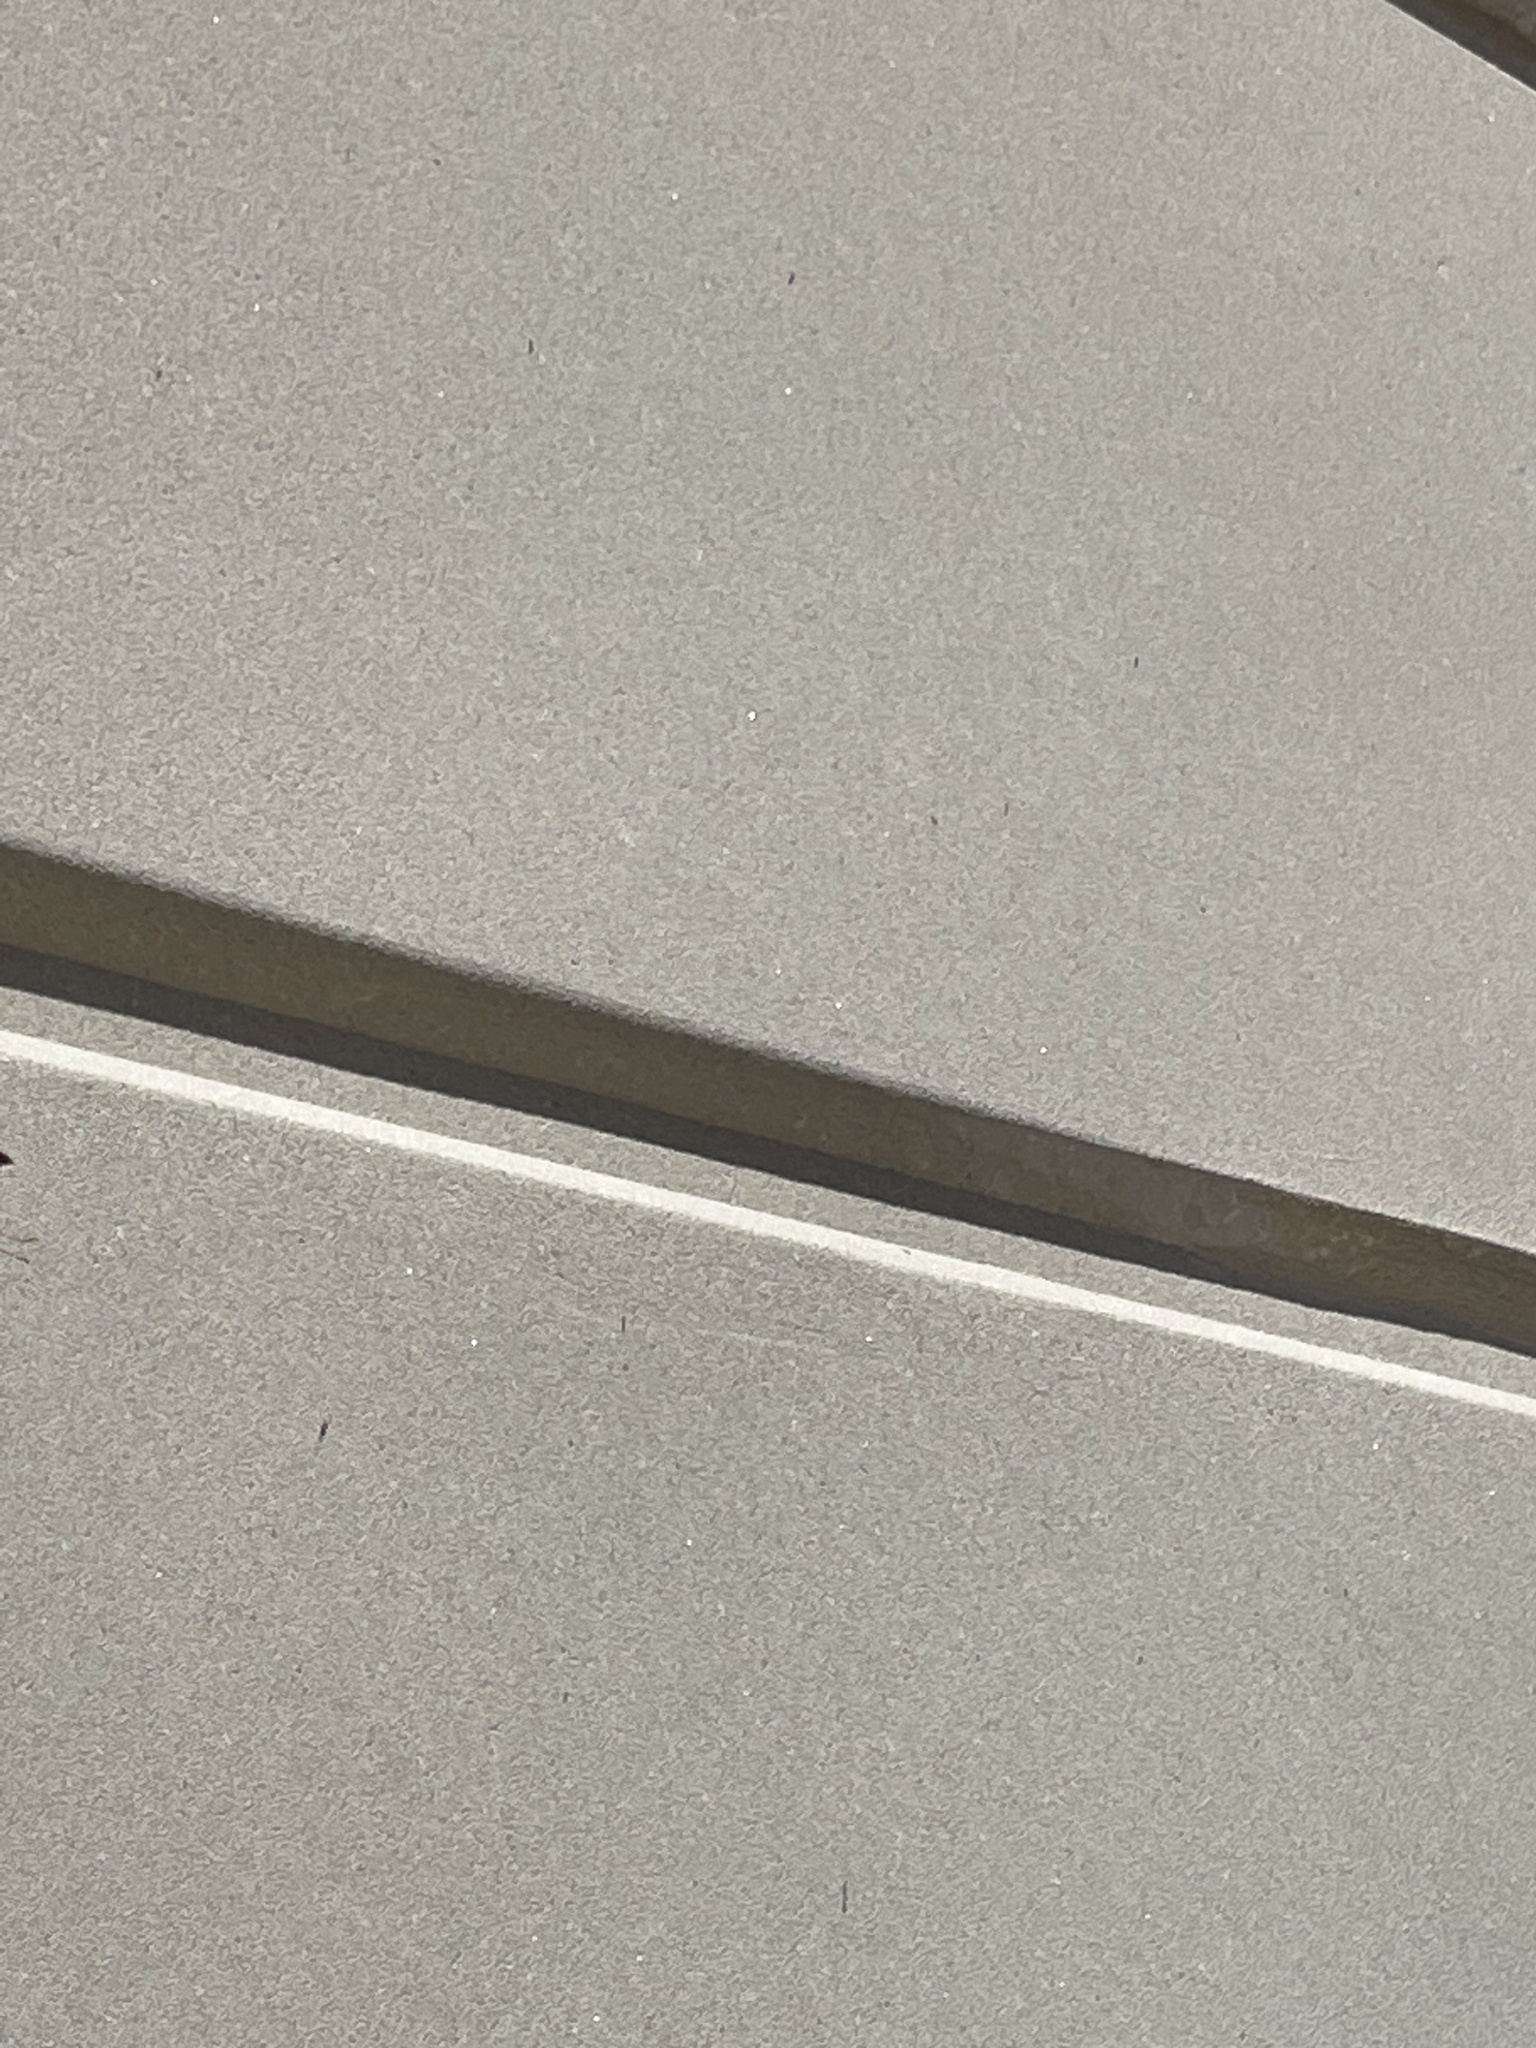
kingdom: Animalia
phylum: Arthropoda
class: Insecta
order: Hymenoptera
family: Eumenidae
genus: Polistes
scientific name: Polistes metricus
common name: Metric paper wasp
